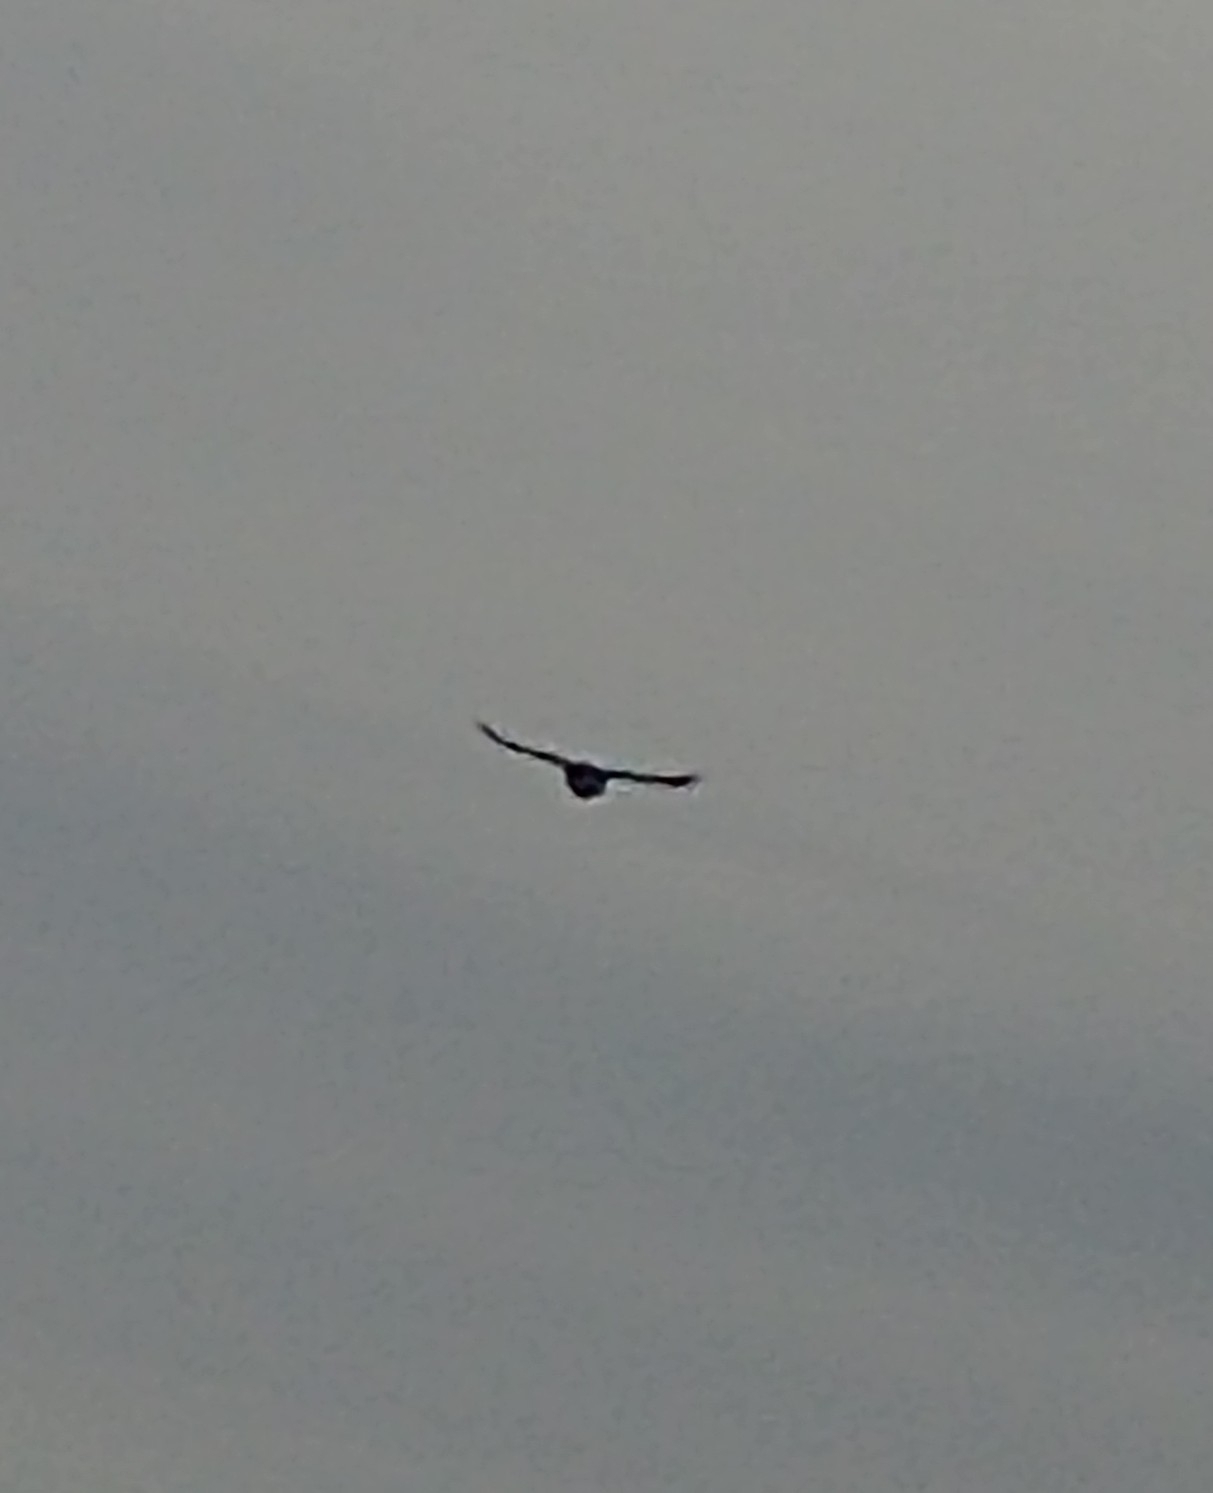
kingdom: Animalia
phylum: Chordata
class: Aves
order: Passeriformes
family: Corvidae
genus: Cyanocitta
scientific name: Cyanocitta cristata
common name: Blue jay
